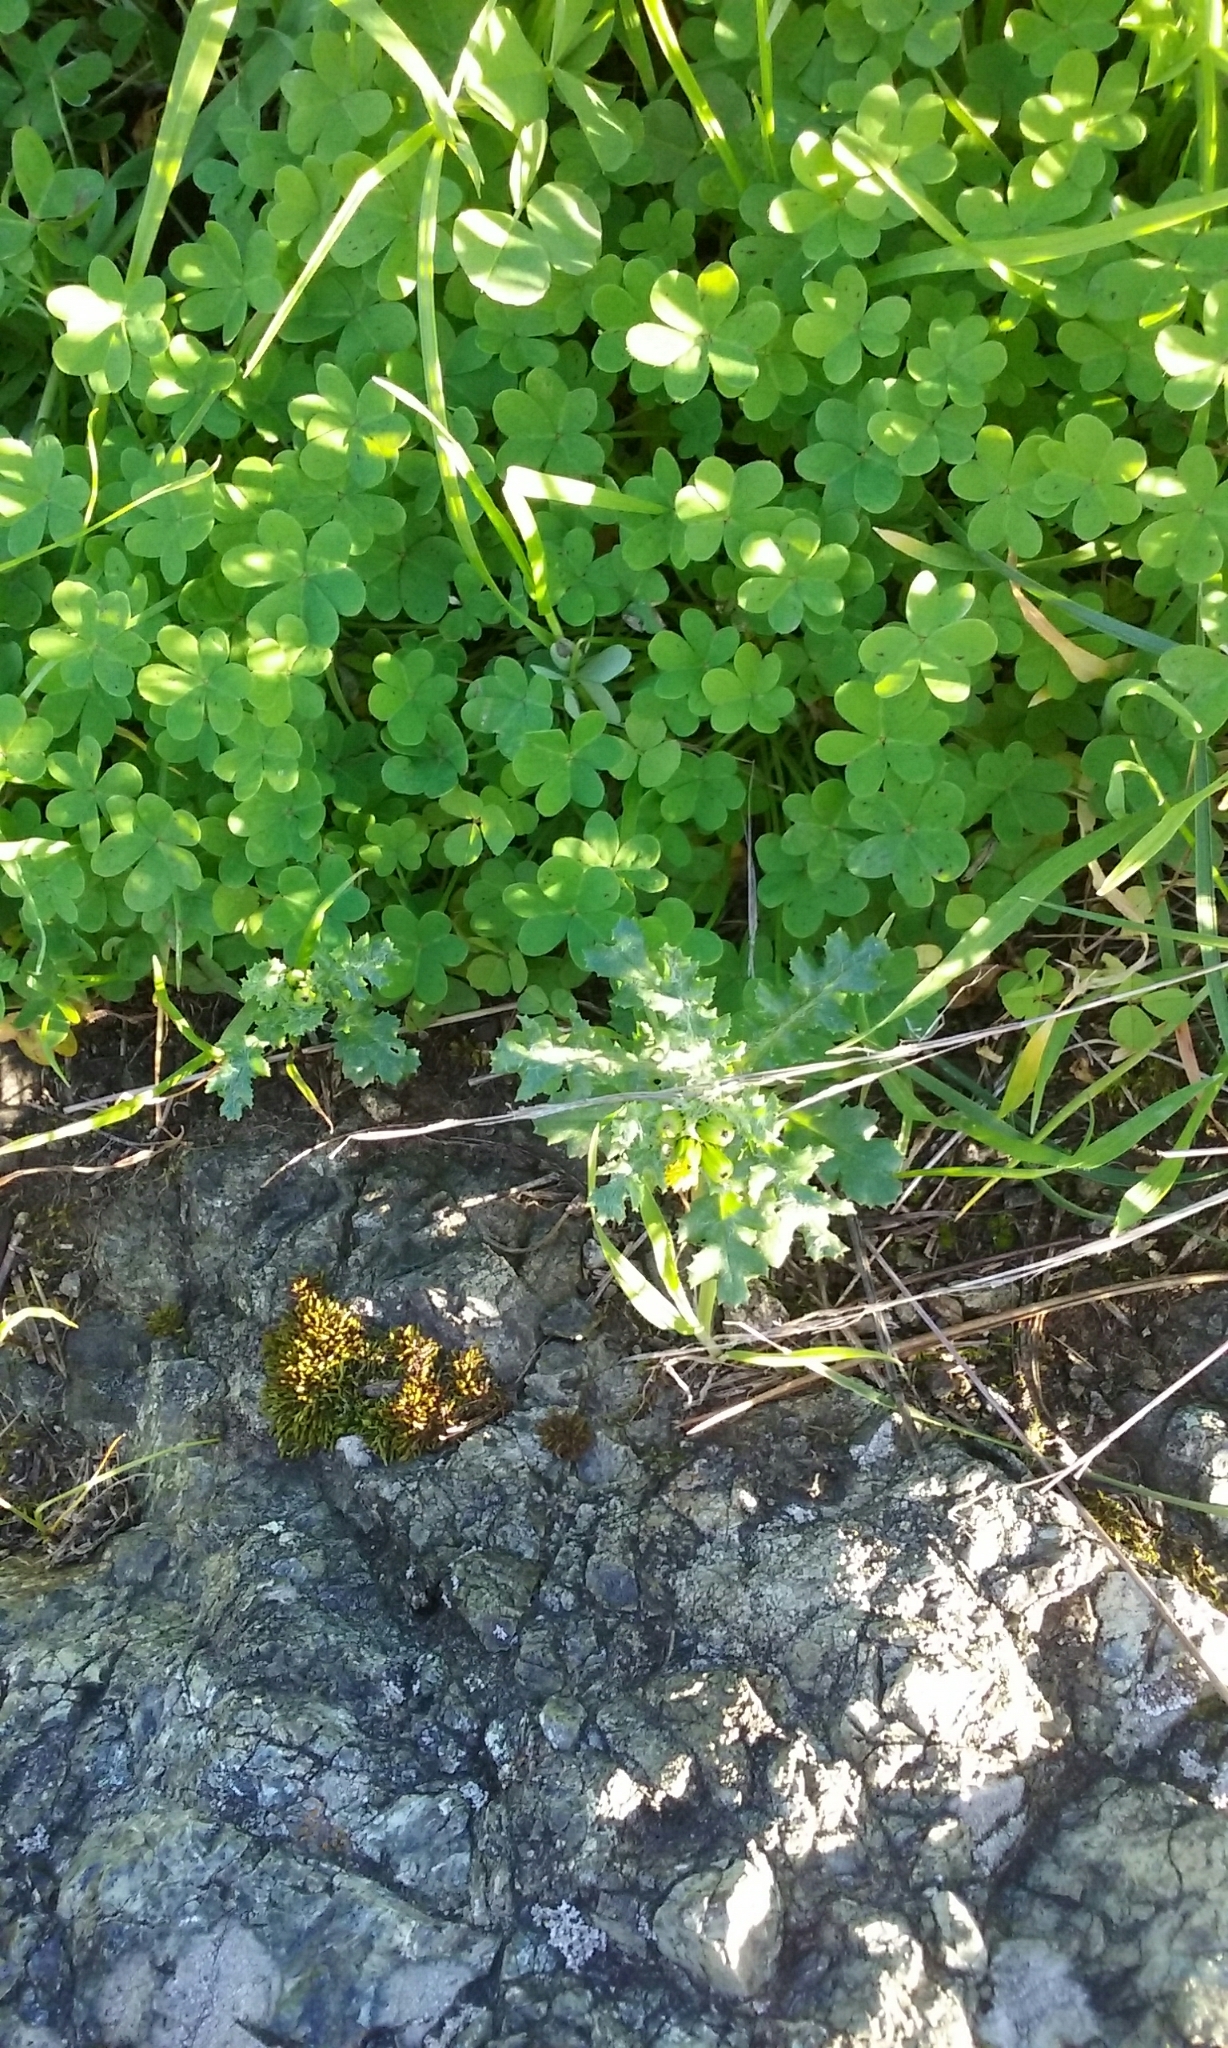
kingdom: Plantae
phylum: Tracheophyta
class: Magnoliopsida
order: Asterales
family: Asteraceae
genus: Senecio
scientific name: Senecio vulgaris
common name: Old-man-in-the-spring
